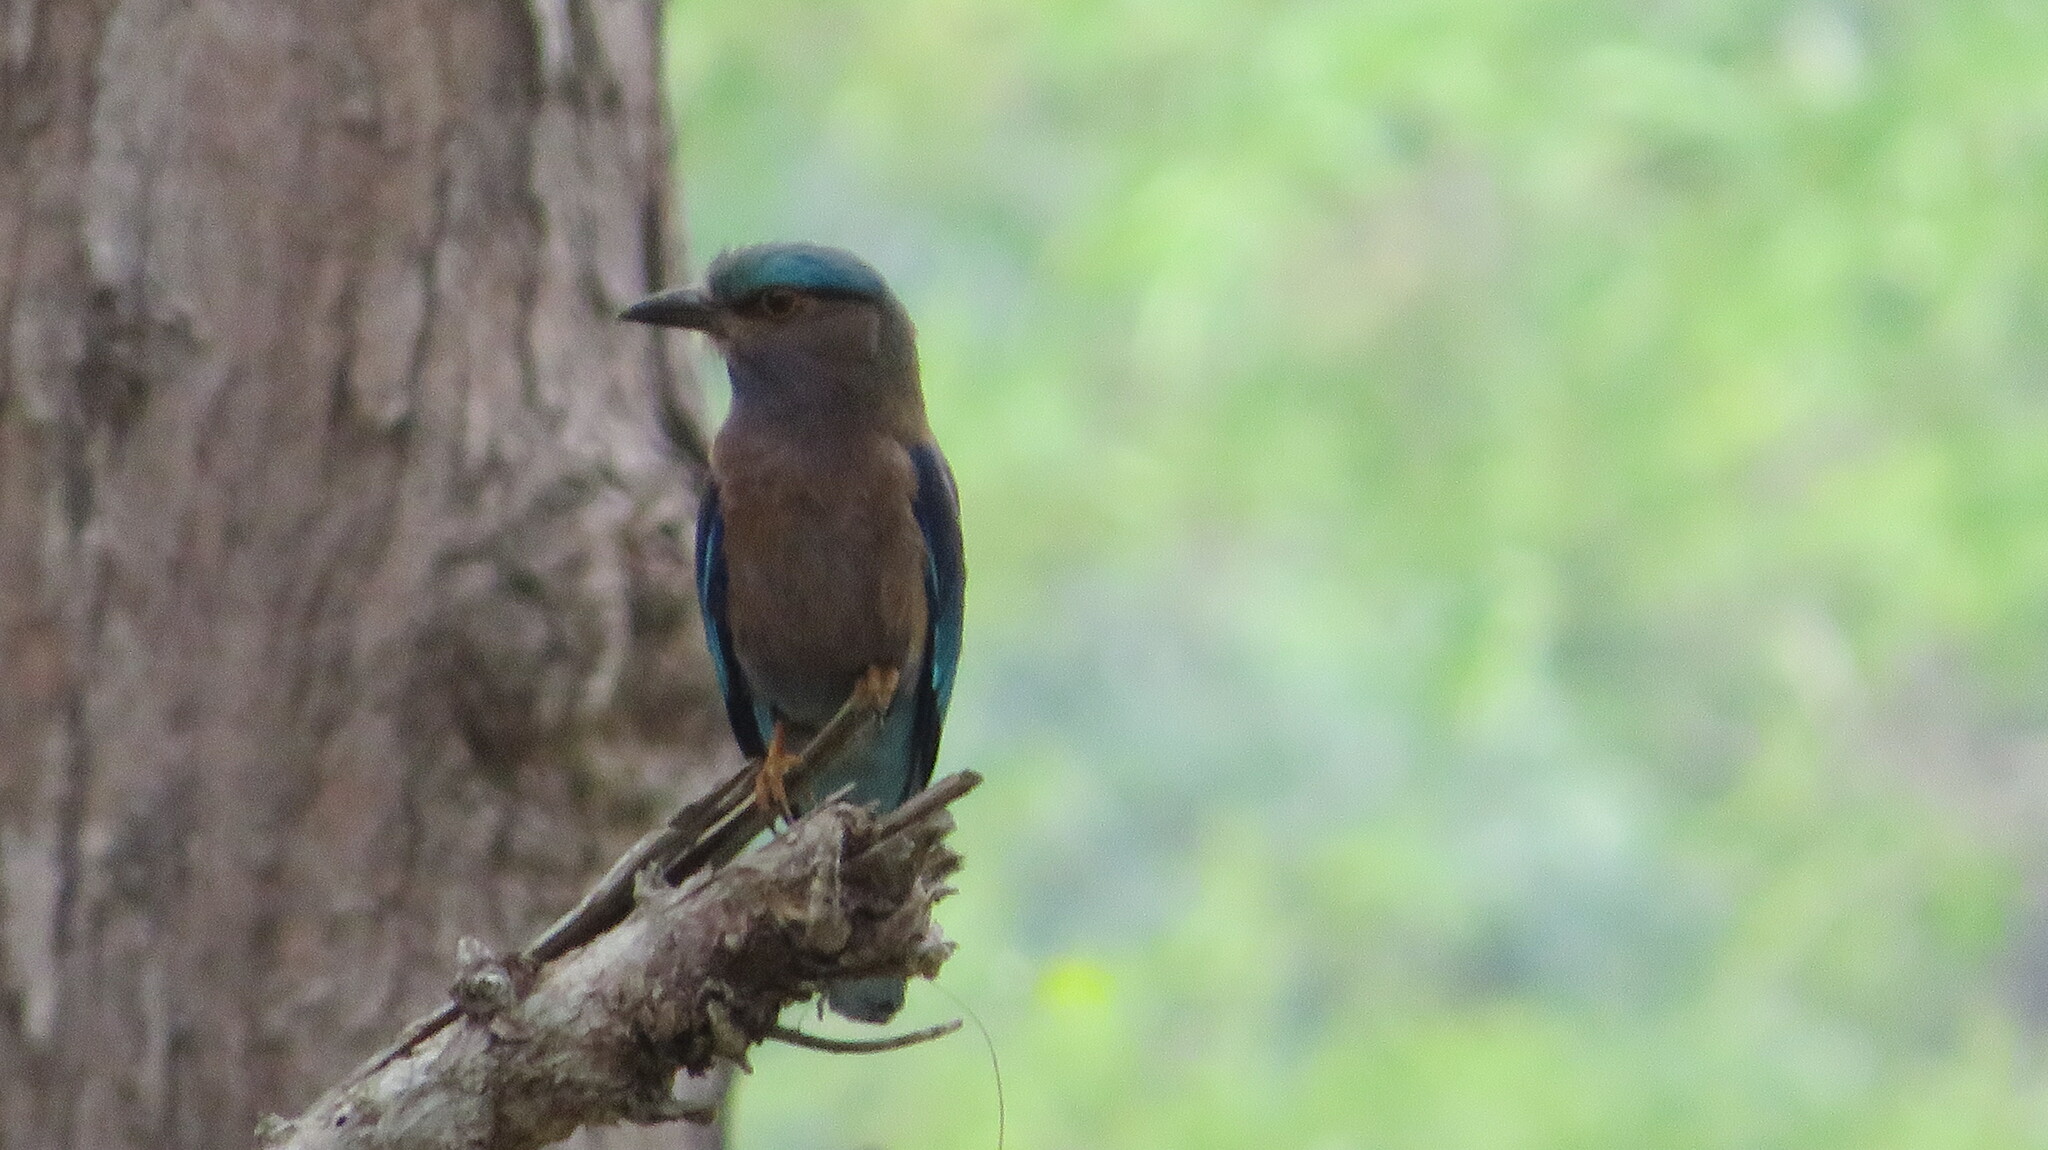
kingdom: Animalia
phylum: Chordata
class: Aves
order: Coraciiformes
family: Coraciidae
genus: Coracias
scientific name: Coracias affinis
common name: Indochinese roller
